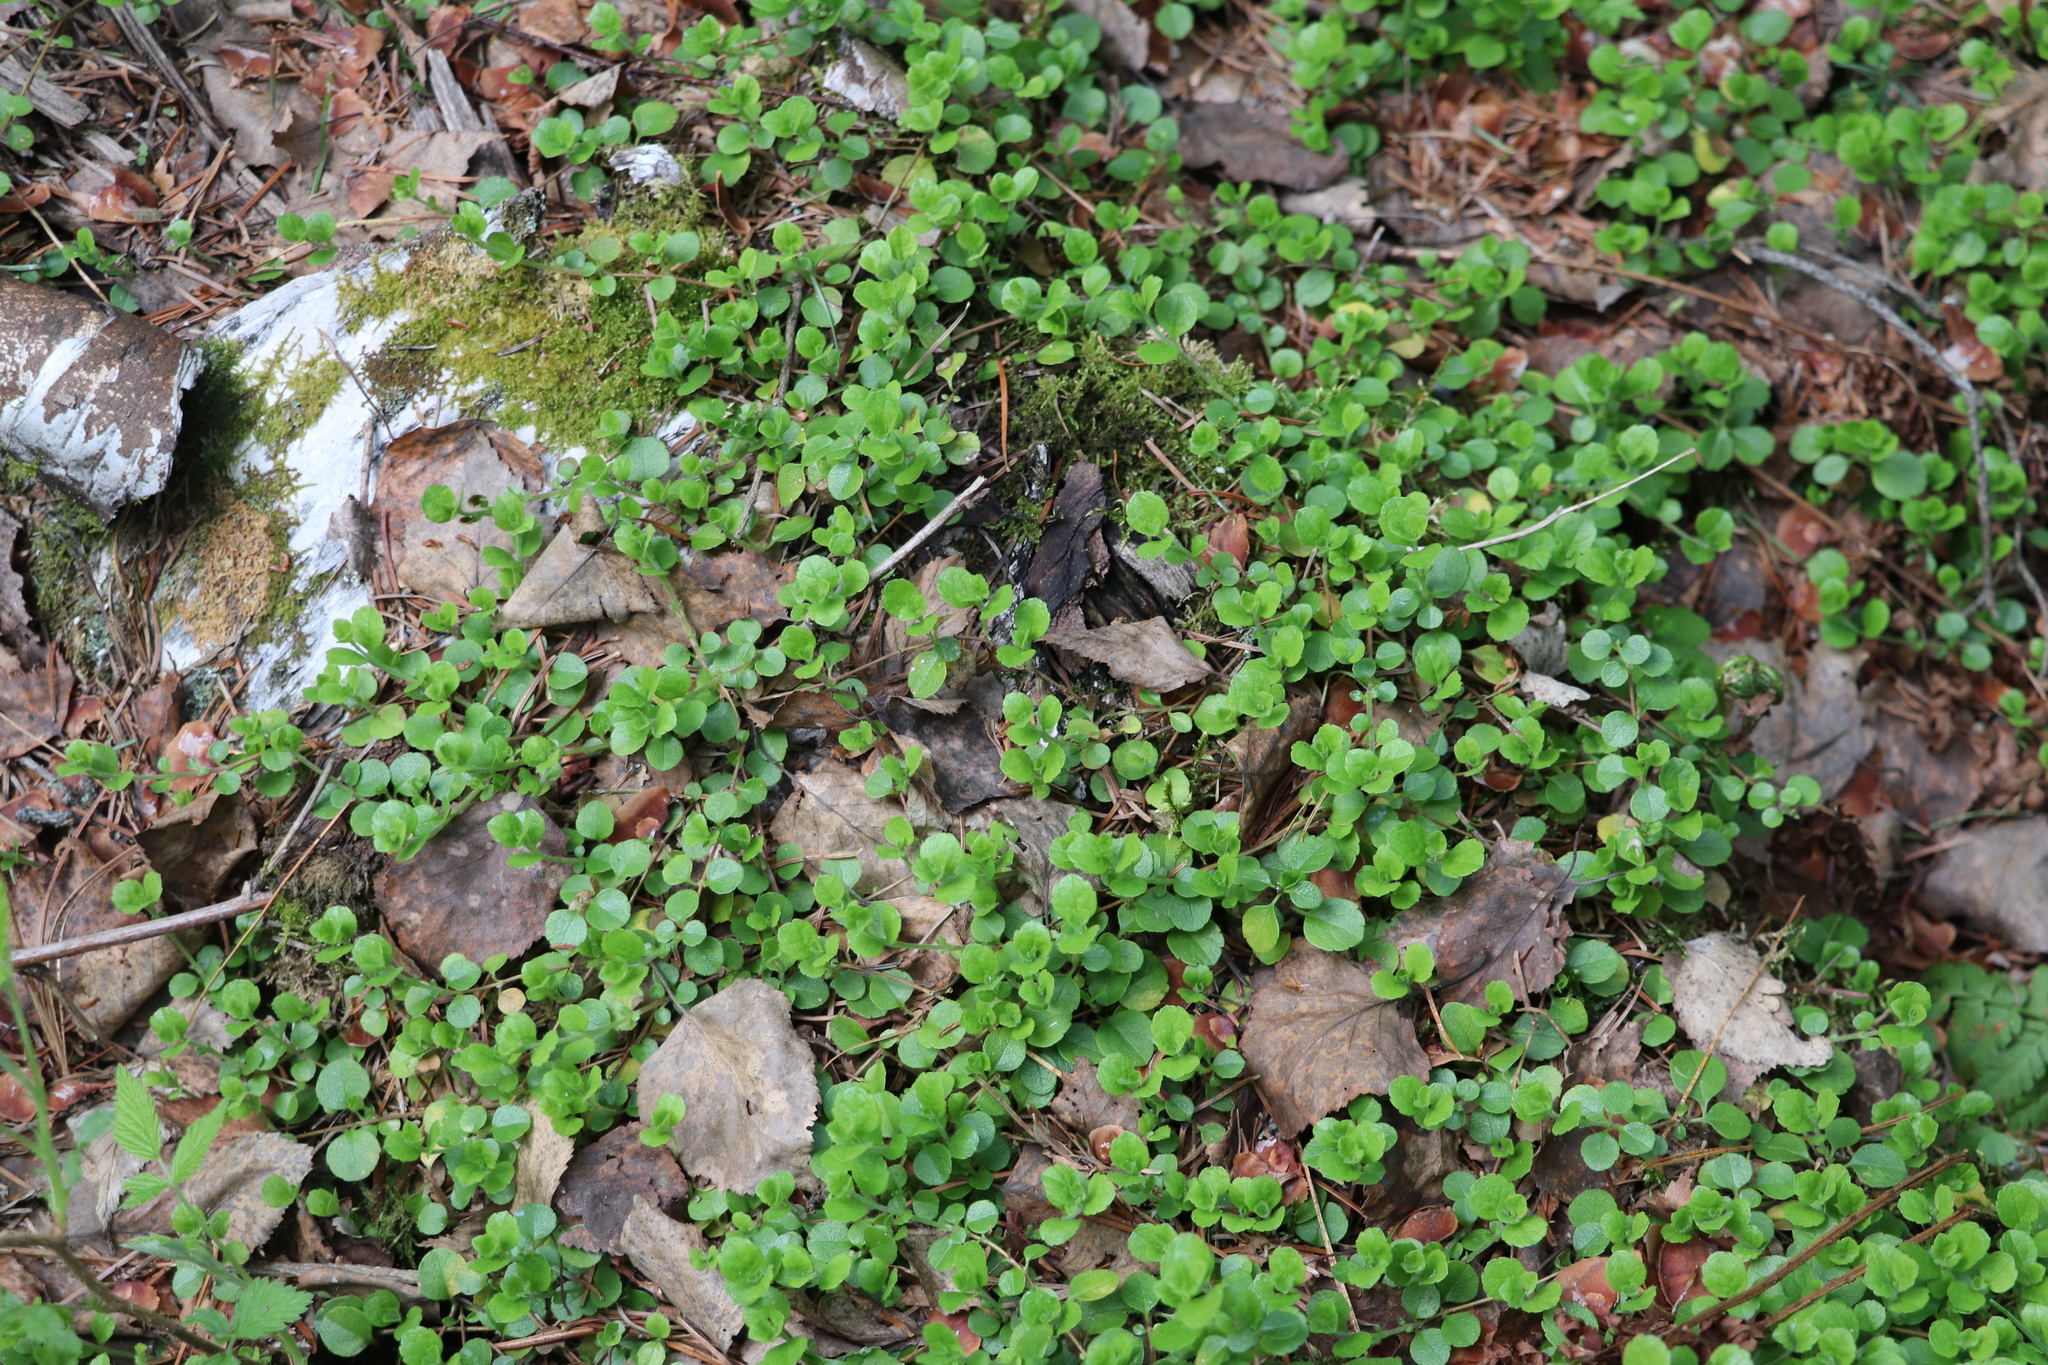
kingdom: Plantae
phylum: Tracheophyta
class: Magnoliopsida
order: Dipsacales
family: Caprifoliaceae
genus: Linnaea
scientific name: Linnaea borealis
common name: Twinflower
